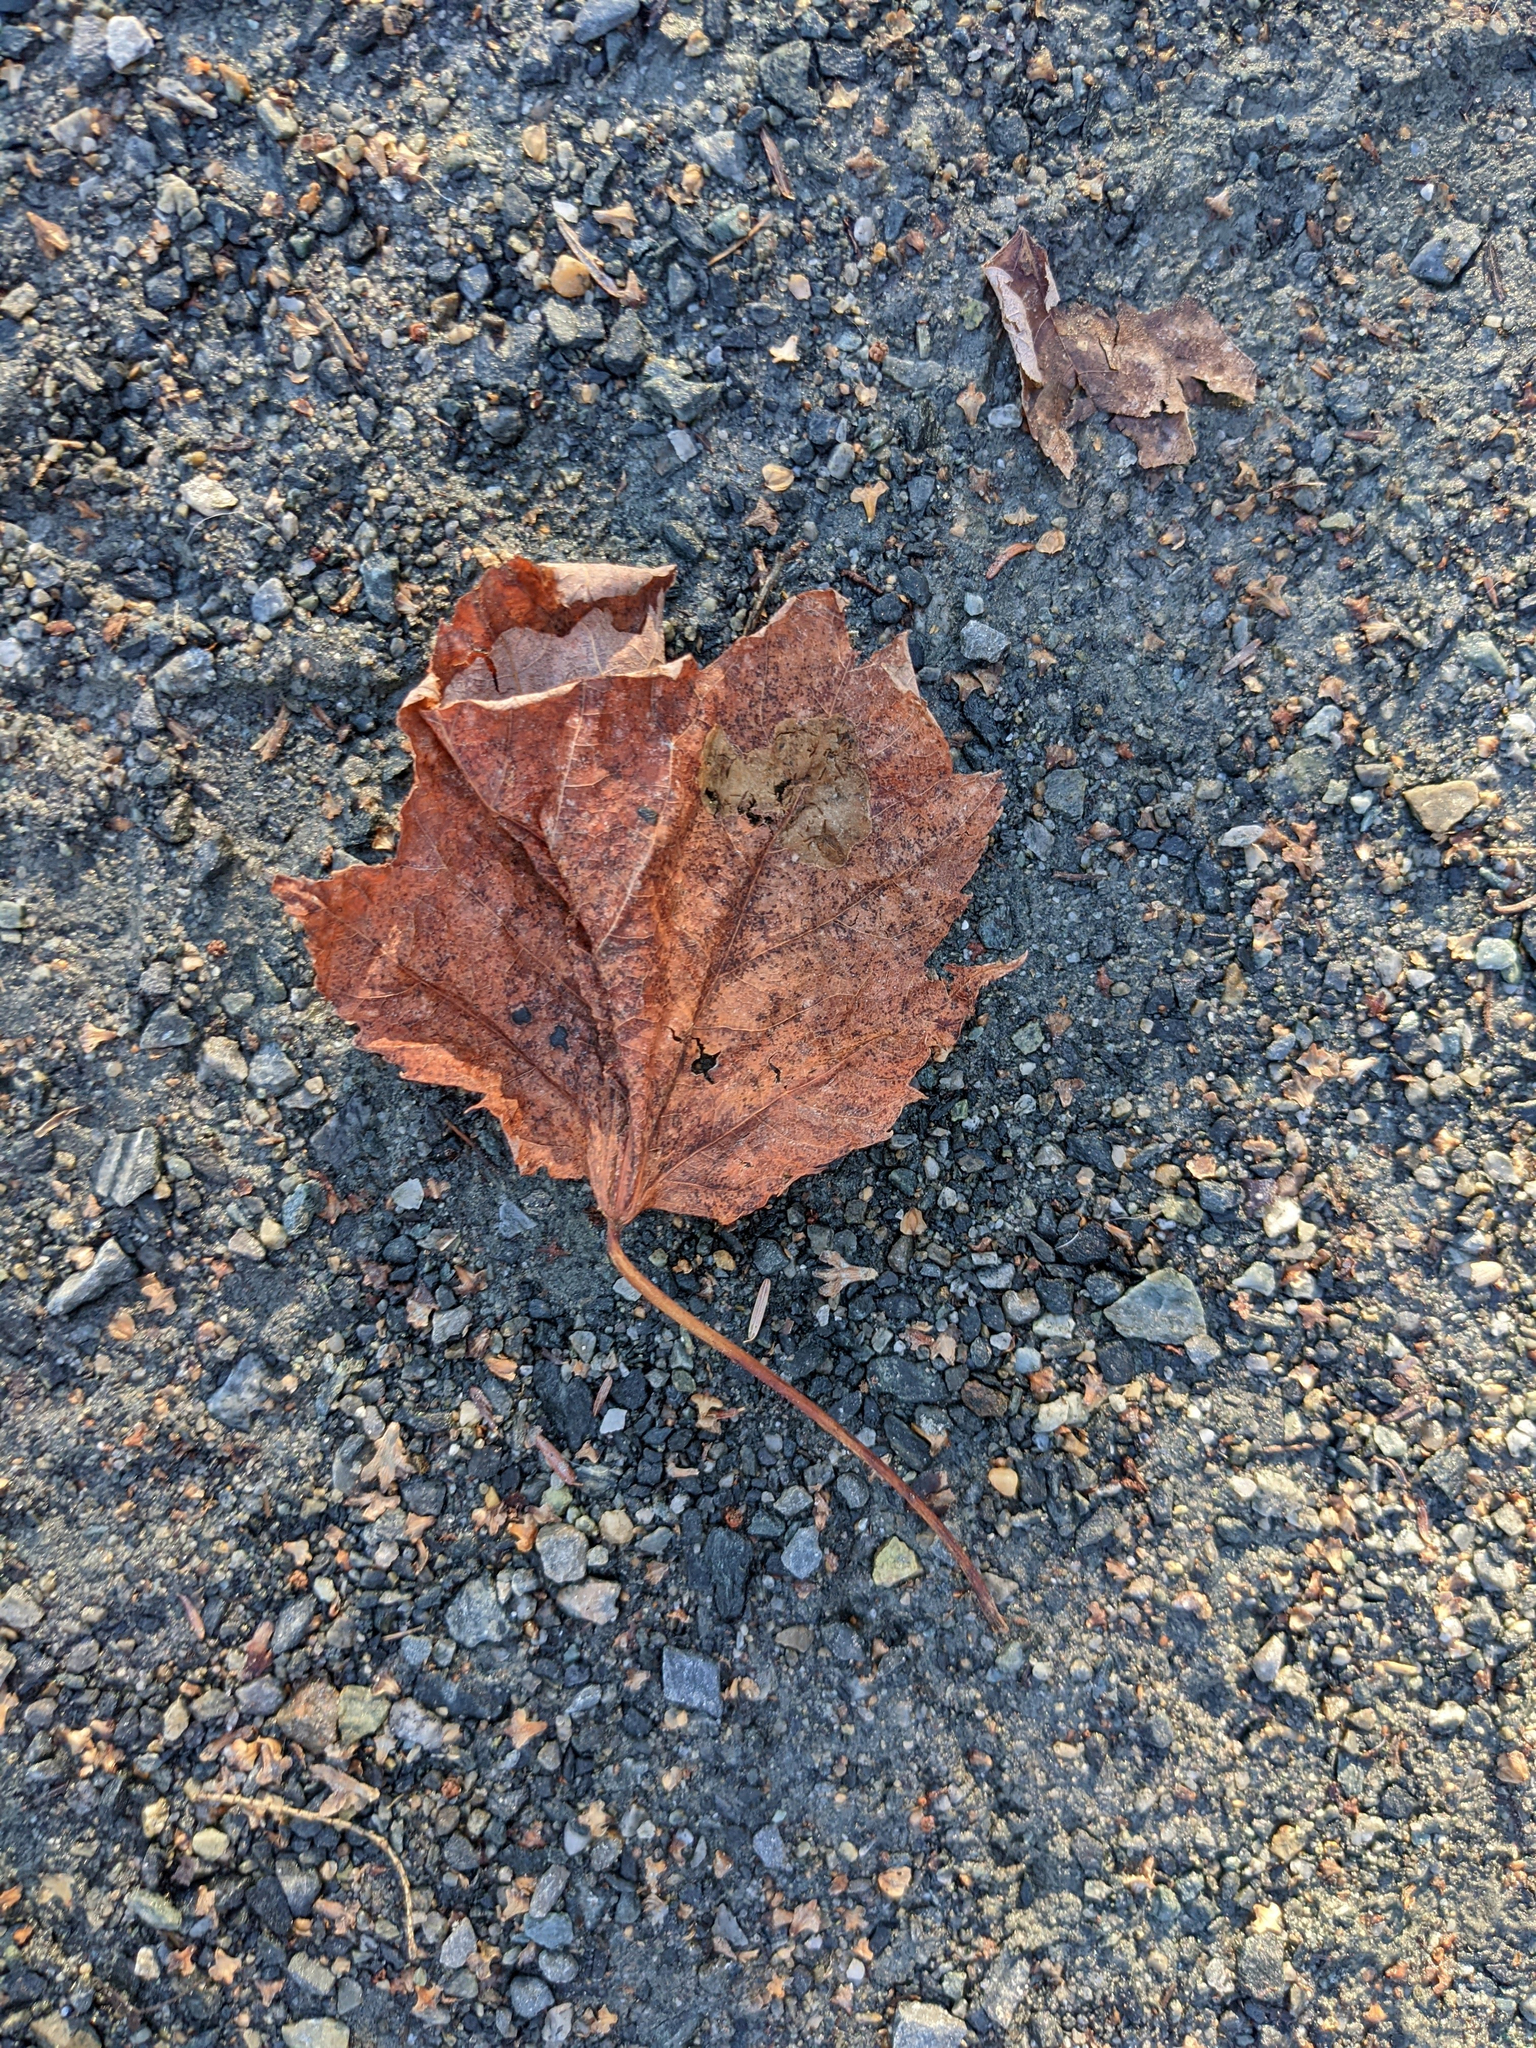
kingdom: Plantae
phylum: Tracheophyta
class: Magnoliopsida
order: Sapindales
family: Sapindaceae
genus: Acer
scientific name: Acer rubrum
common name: Red maple
